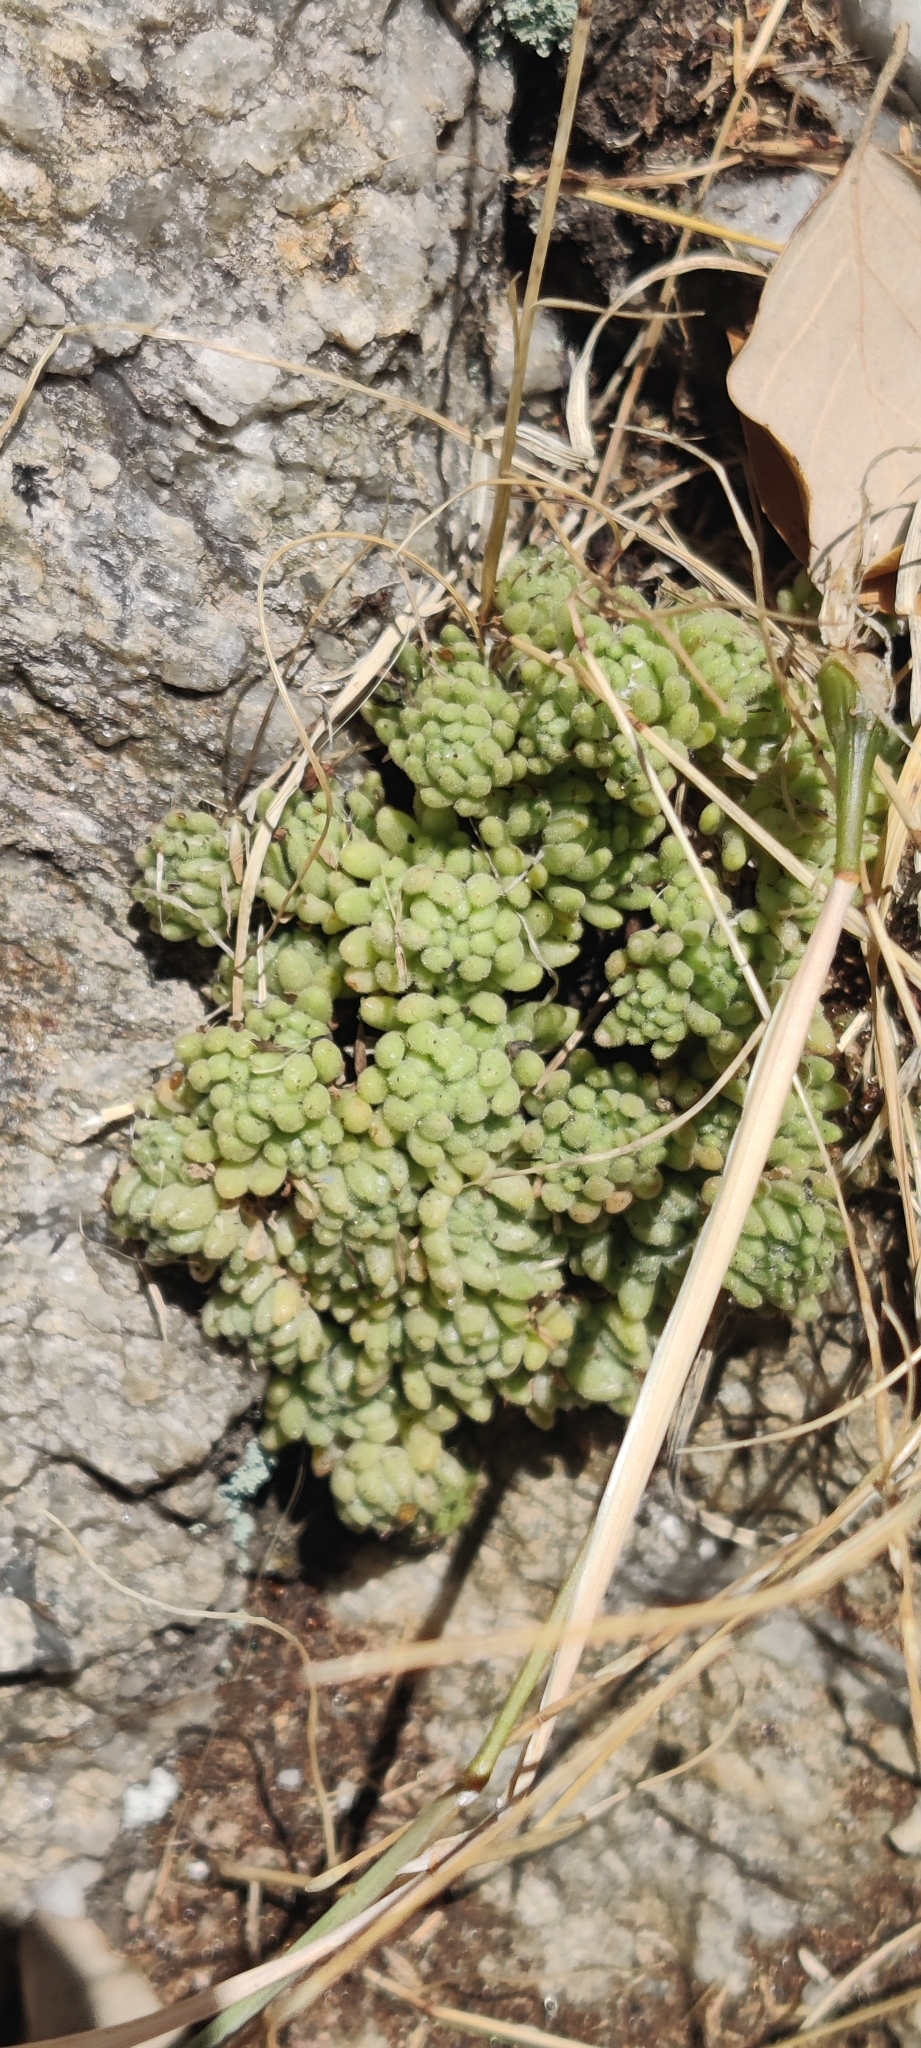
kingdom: Plantae
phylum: Tracheophyta
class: Magnoliopsida
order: Saxifragales
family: Crassulaceae
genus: Sedum
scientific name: Sedum hirsutum
